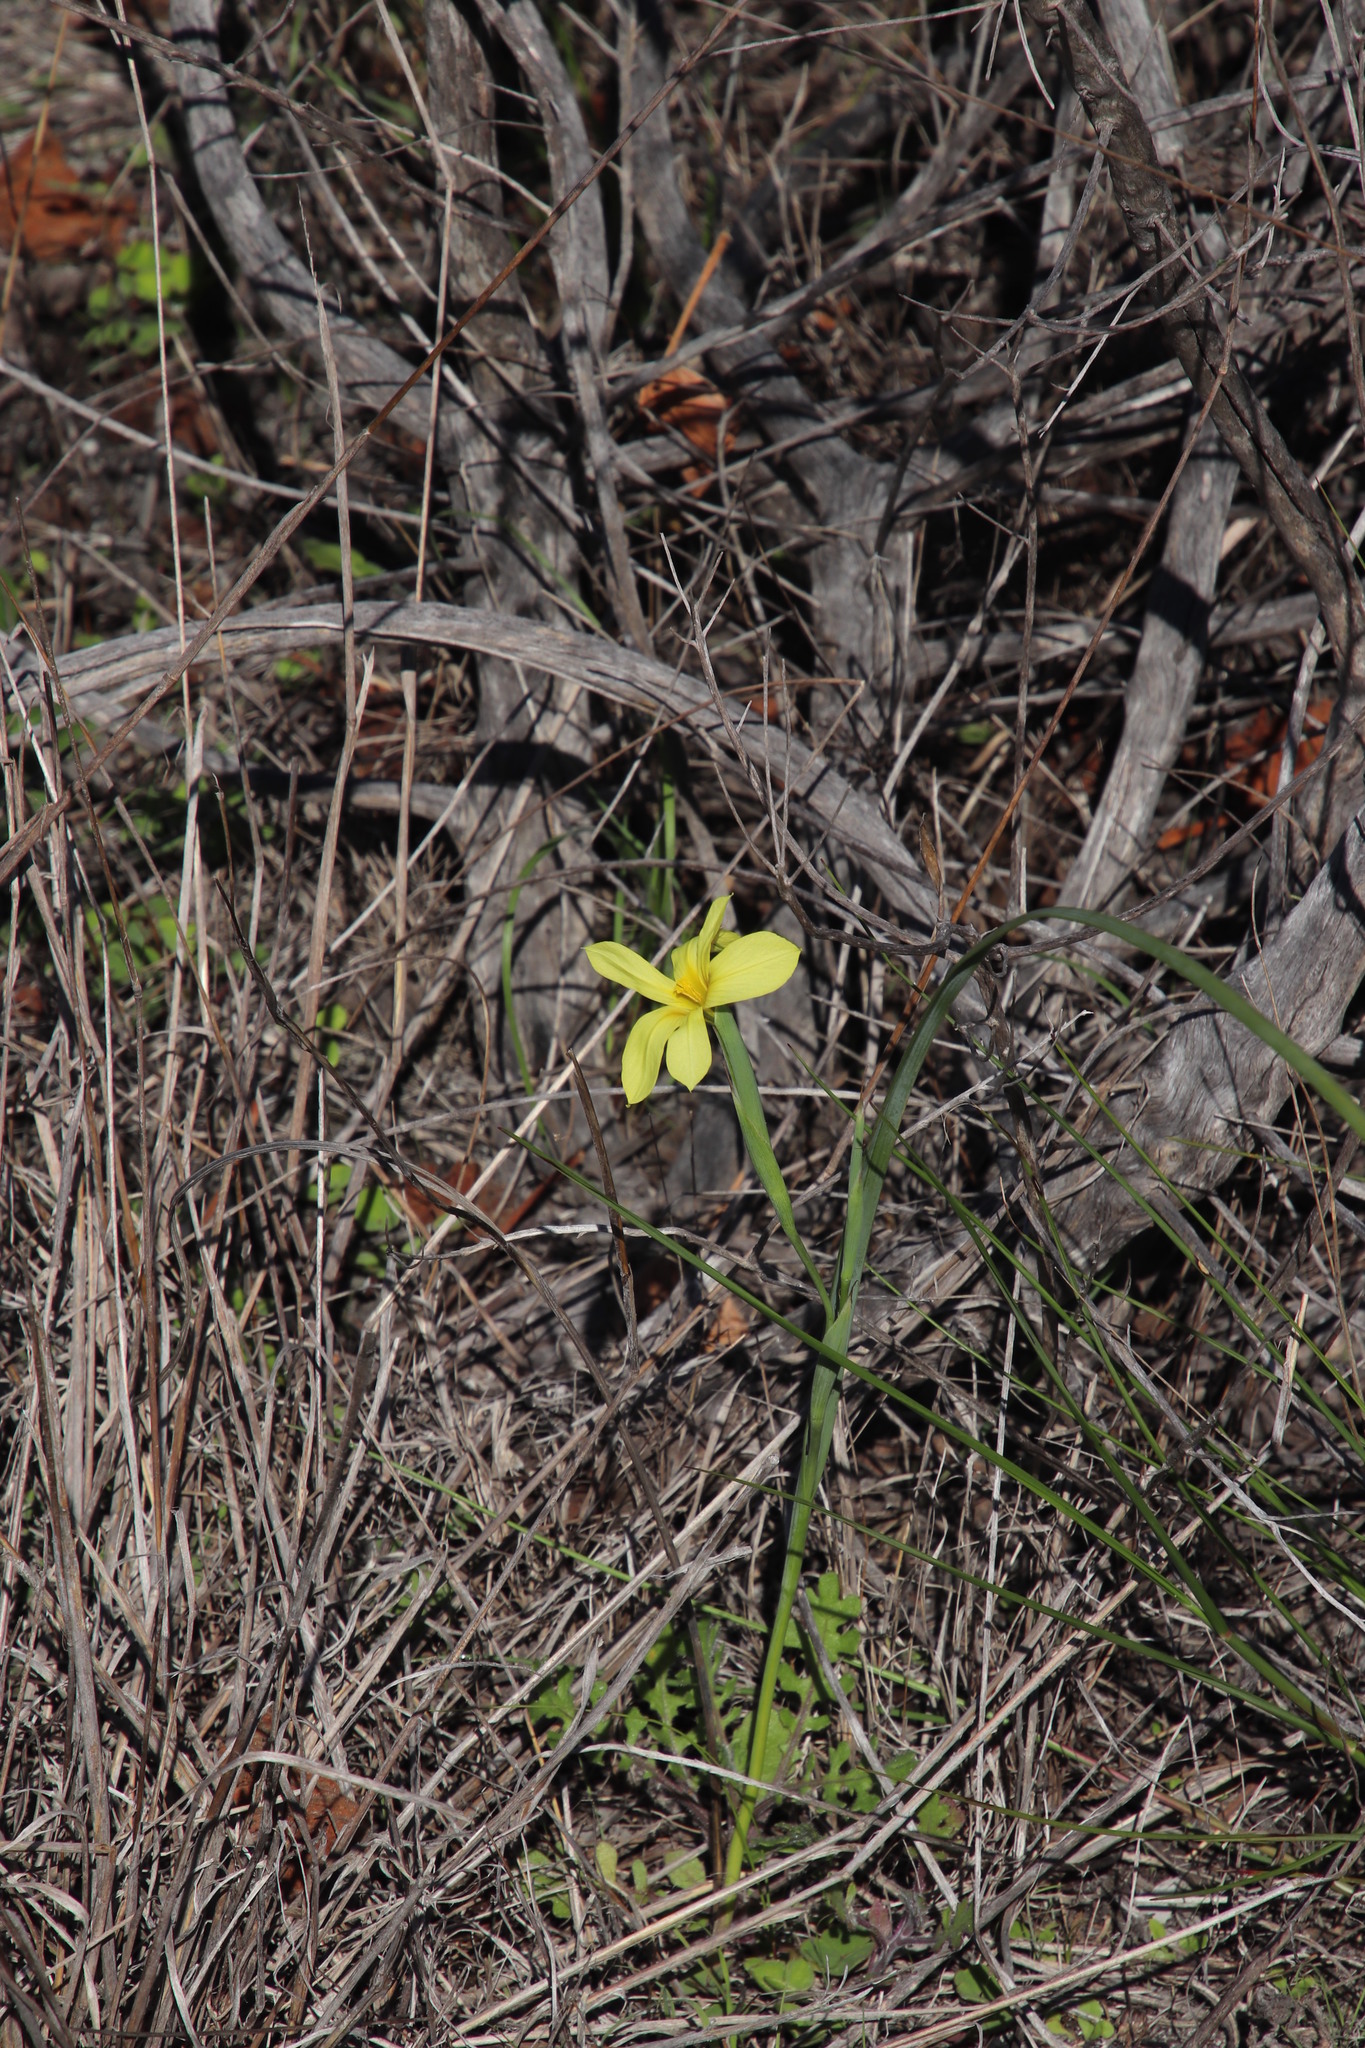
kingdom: Plantae
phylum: Tracheophyta
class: Liliopsida
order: Asparagales
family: Iridaceae
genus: Moraea
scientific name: Moraea collina
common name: Cape-tulip
